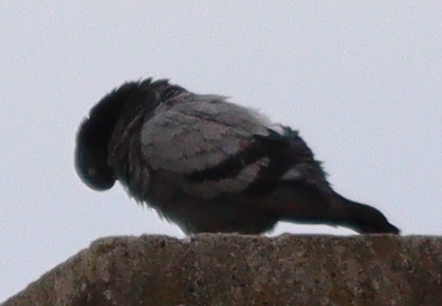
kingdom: Animalia
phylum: Chordata
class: Aves
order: Columbiformes
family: Columbidae
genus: Columba
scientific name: Columba livia
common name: Rock pigeon
